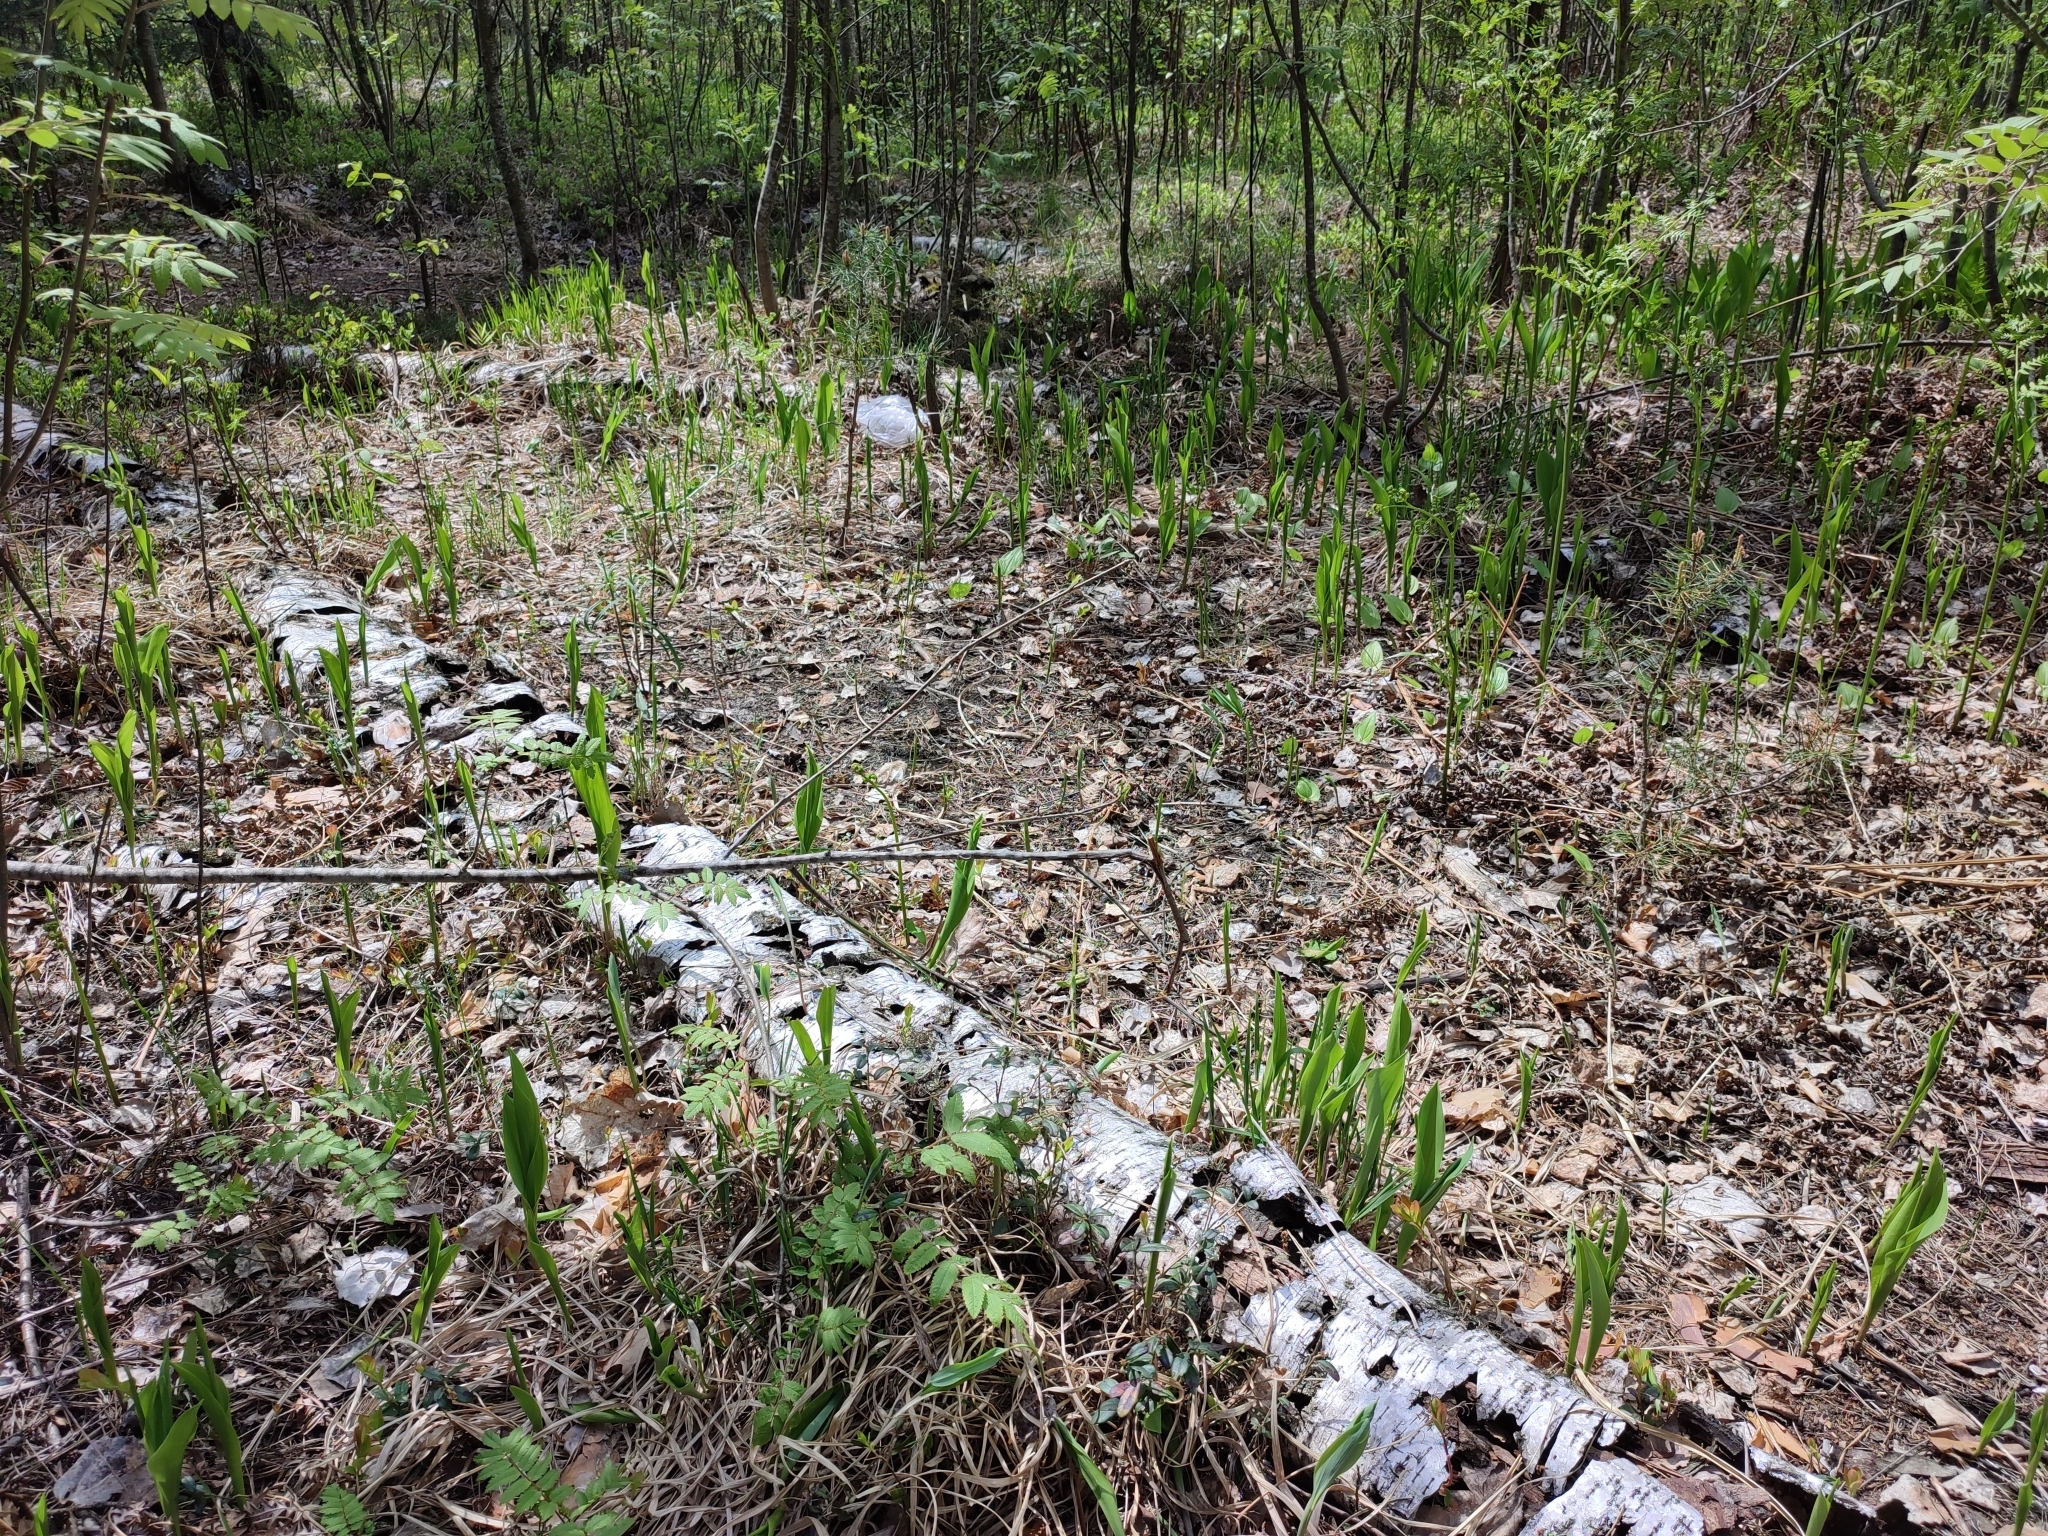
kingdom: Plantae
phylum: Tracheophyta
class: Liliopsida
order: Asparagales
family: Asparagaceae
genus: Convallaria
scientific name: Convallaria majalis
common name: Lily-of-the-valley
